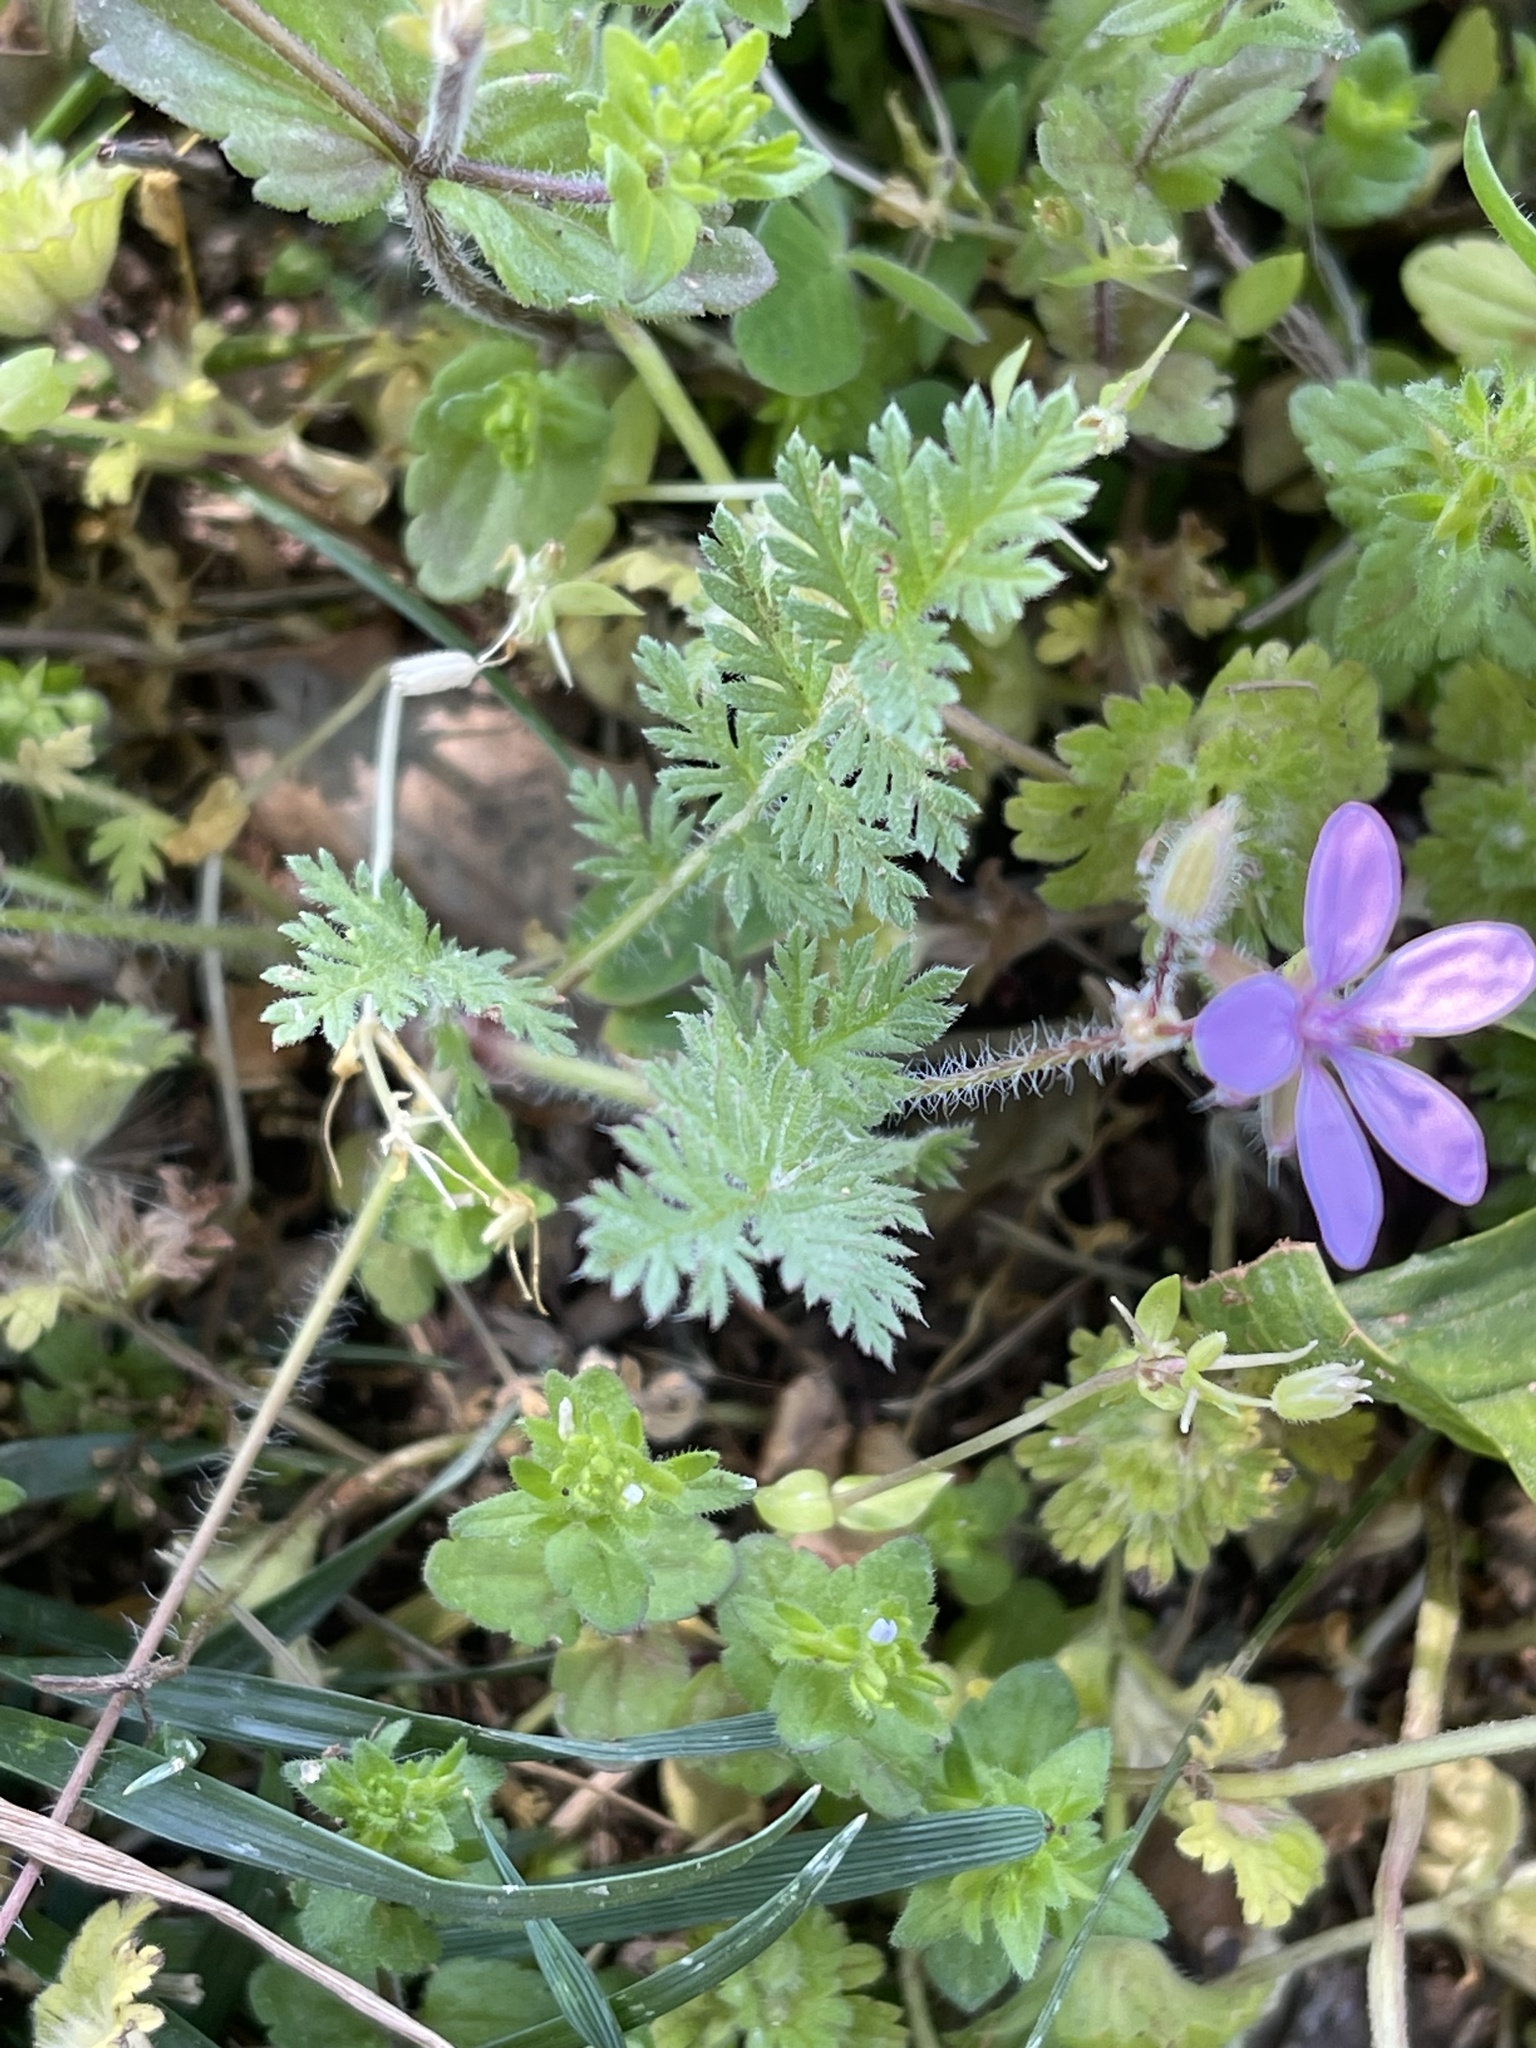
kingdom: Plantae
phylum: Tracheophyta
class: Magnoliopsida
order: Geraniales
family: Geraniaceae
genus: Erodium
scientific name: Erodium cicutarium
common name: Common stork's-bill
